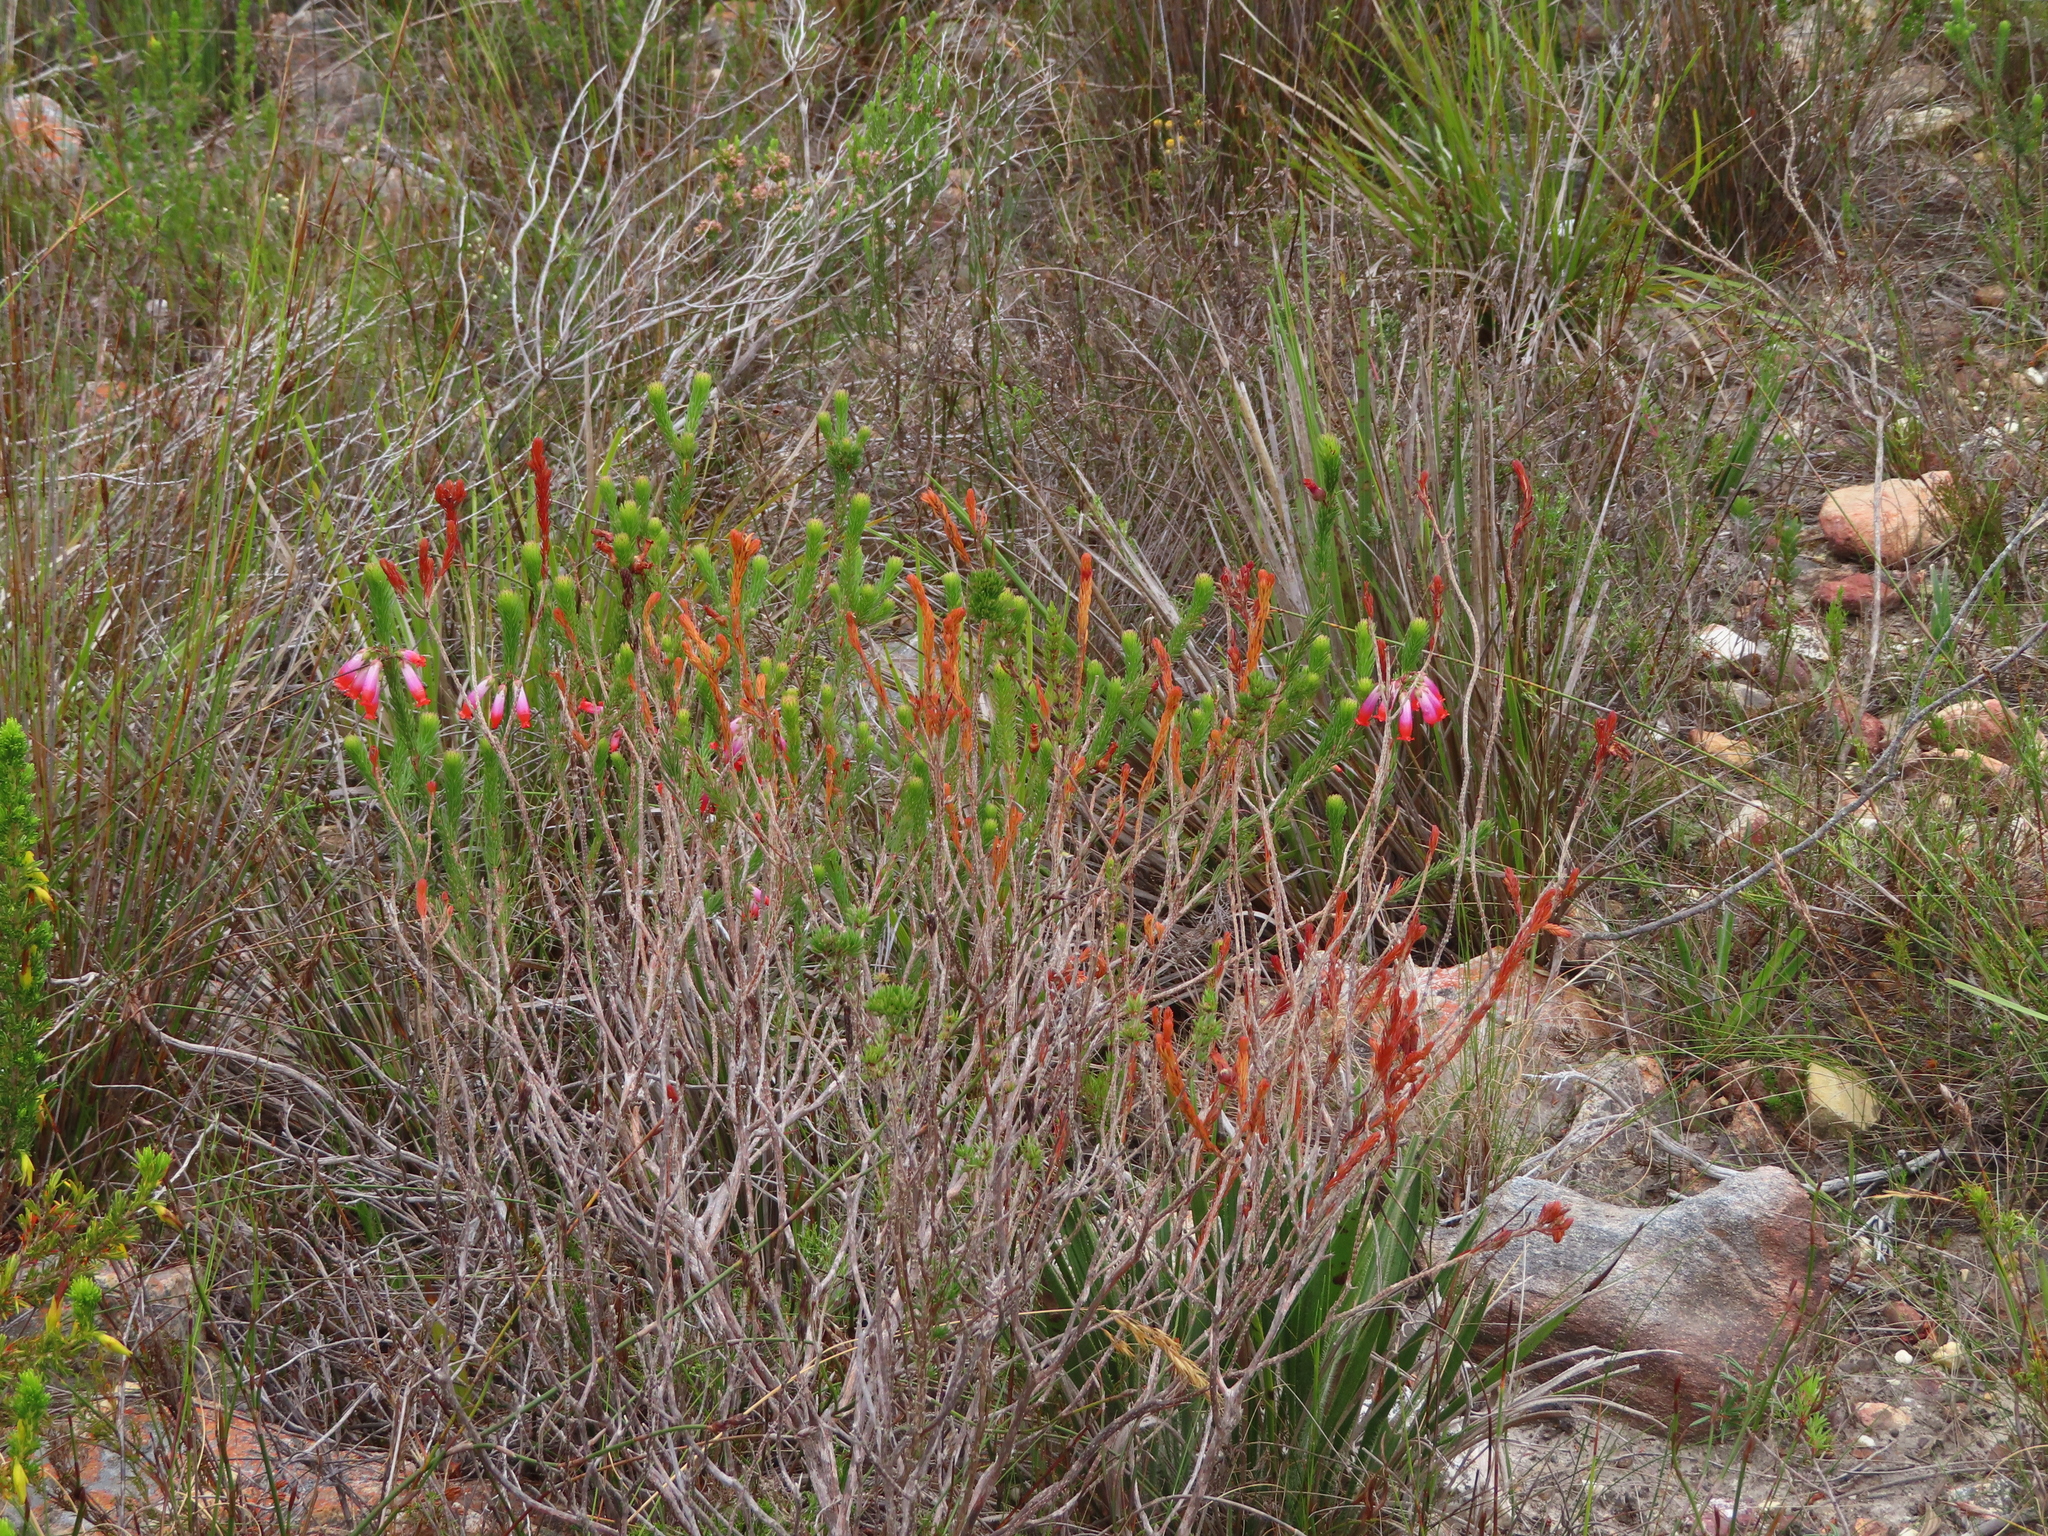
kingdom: Plantae
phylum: Tracheophyta
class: Magnoliopsida
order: Ericales
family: Ericaceae
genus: Erica
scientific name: Erica regia
